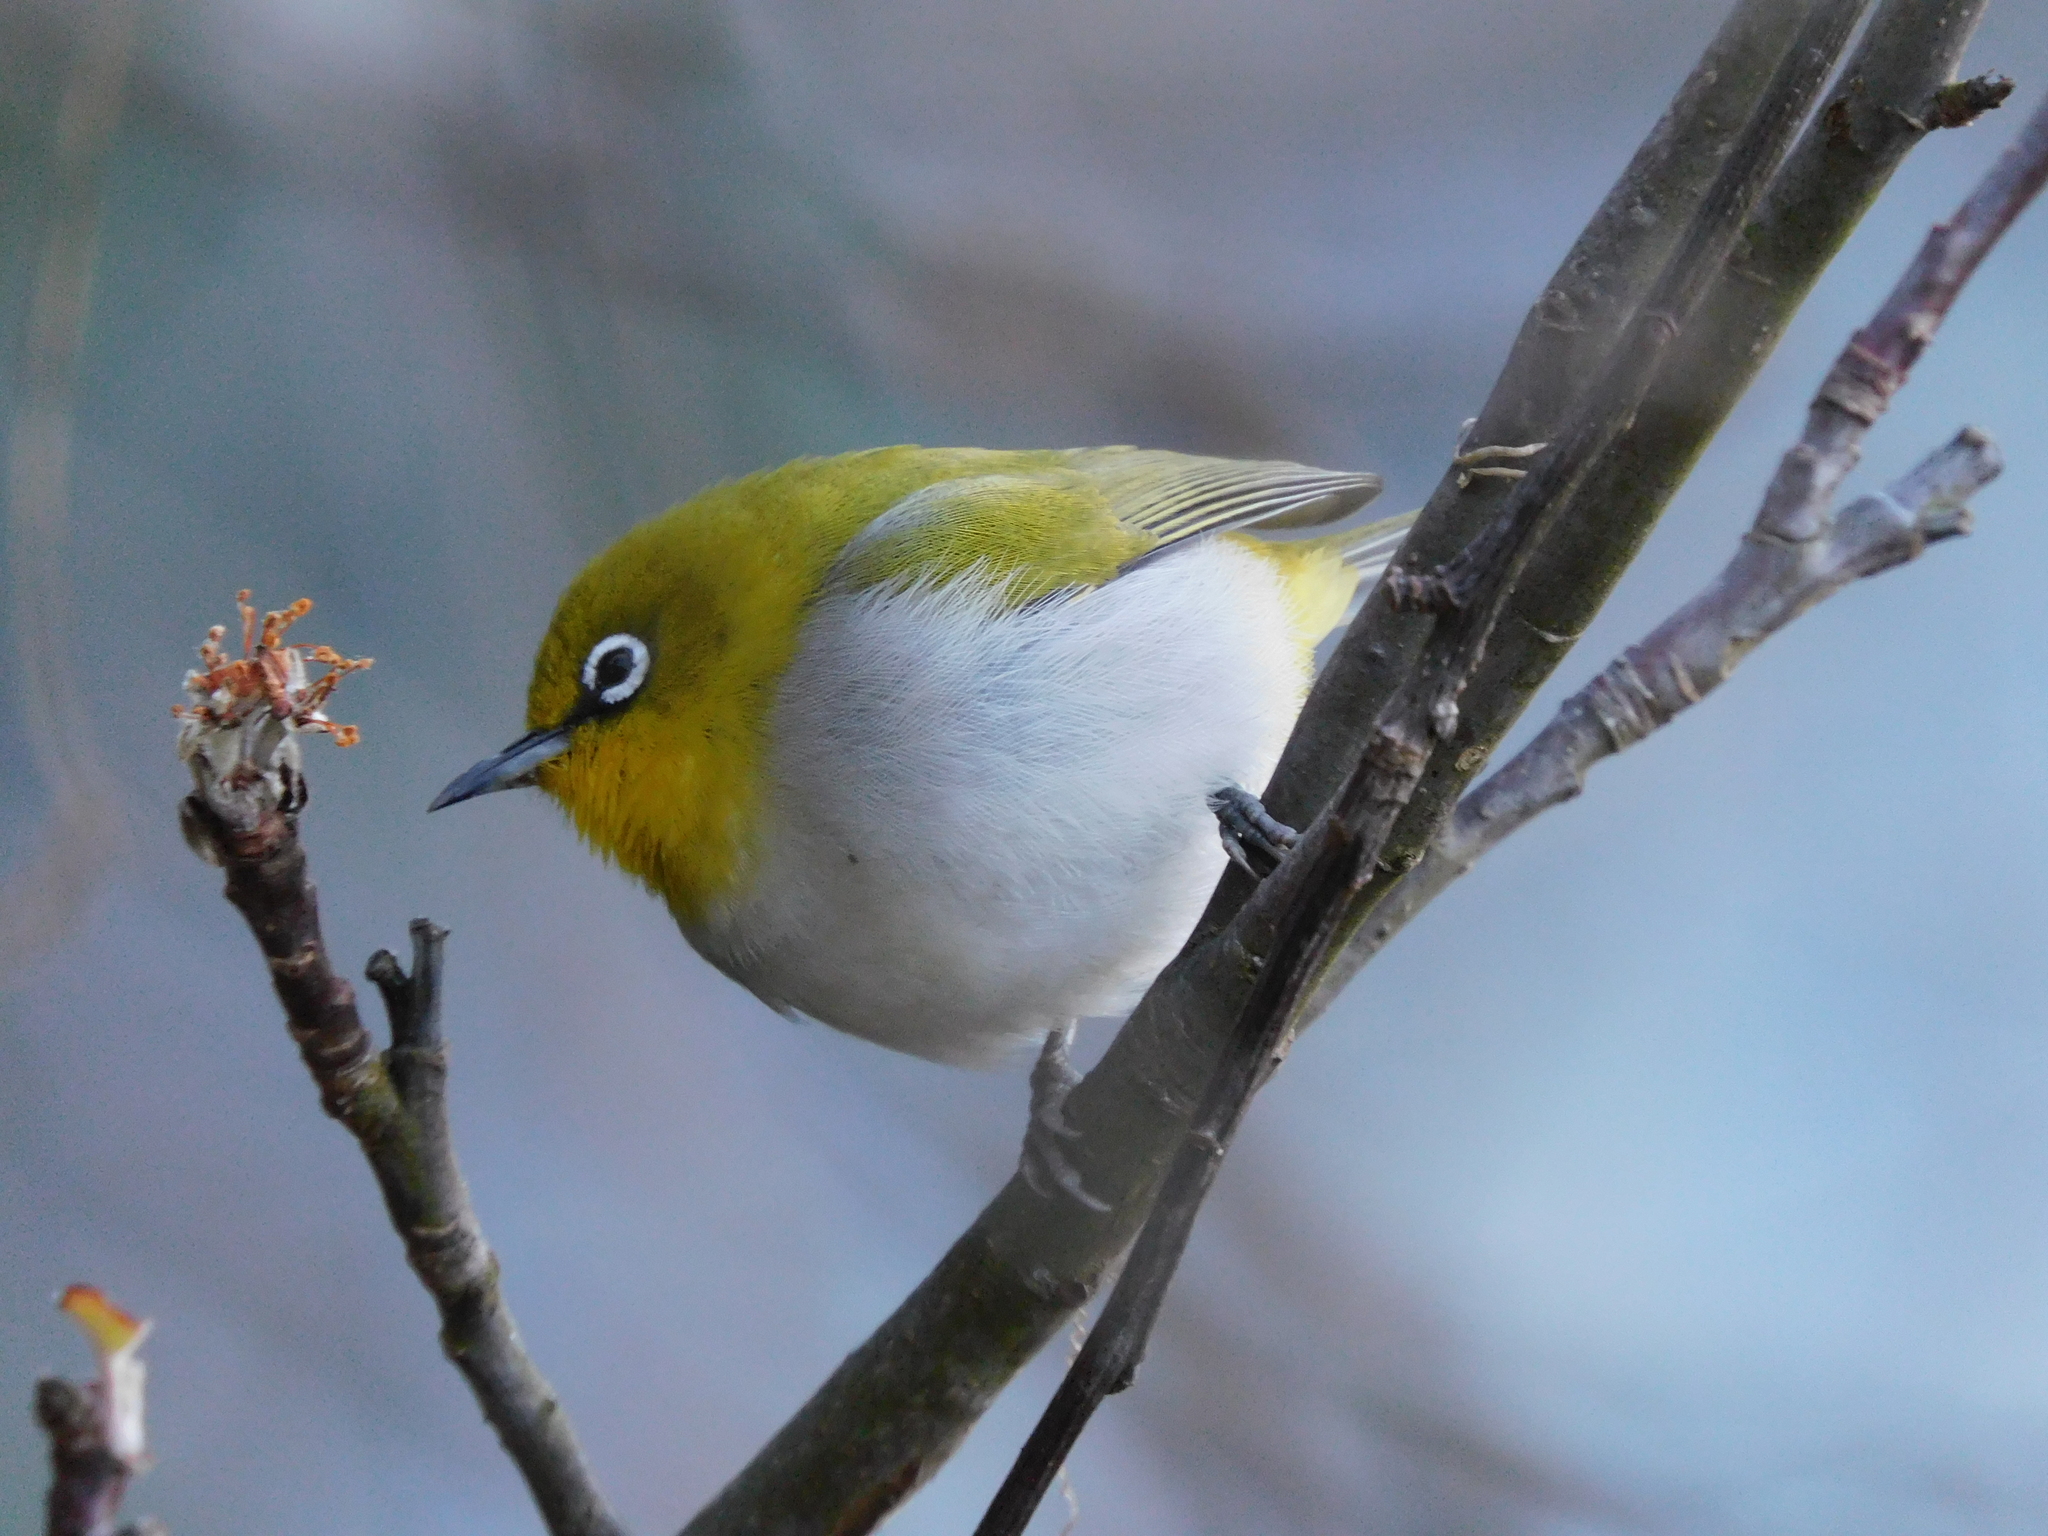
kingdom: Animalia
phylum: Chordata
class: Aves
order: Passeriformes
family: Zosteropidae
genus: Zosterops
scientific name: Zosterops palpebrosus
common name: Oriental white-eye
